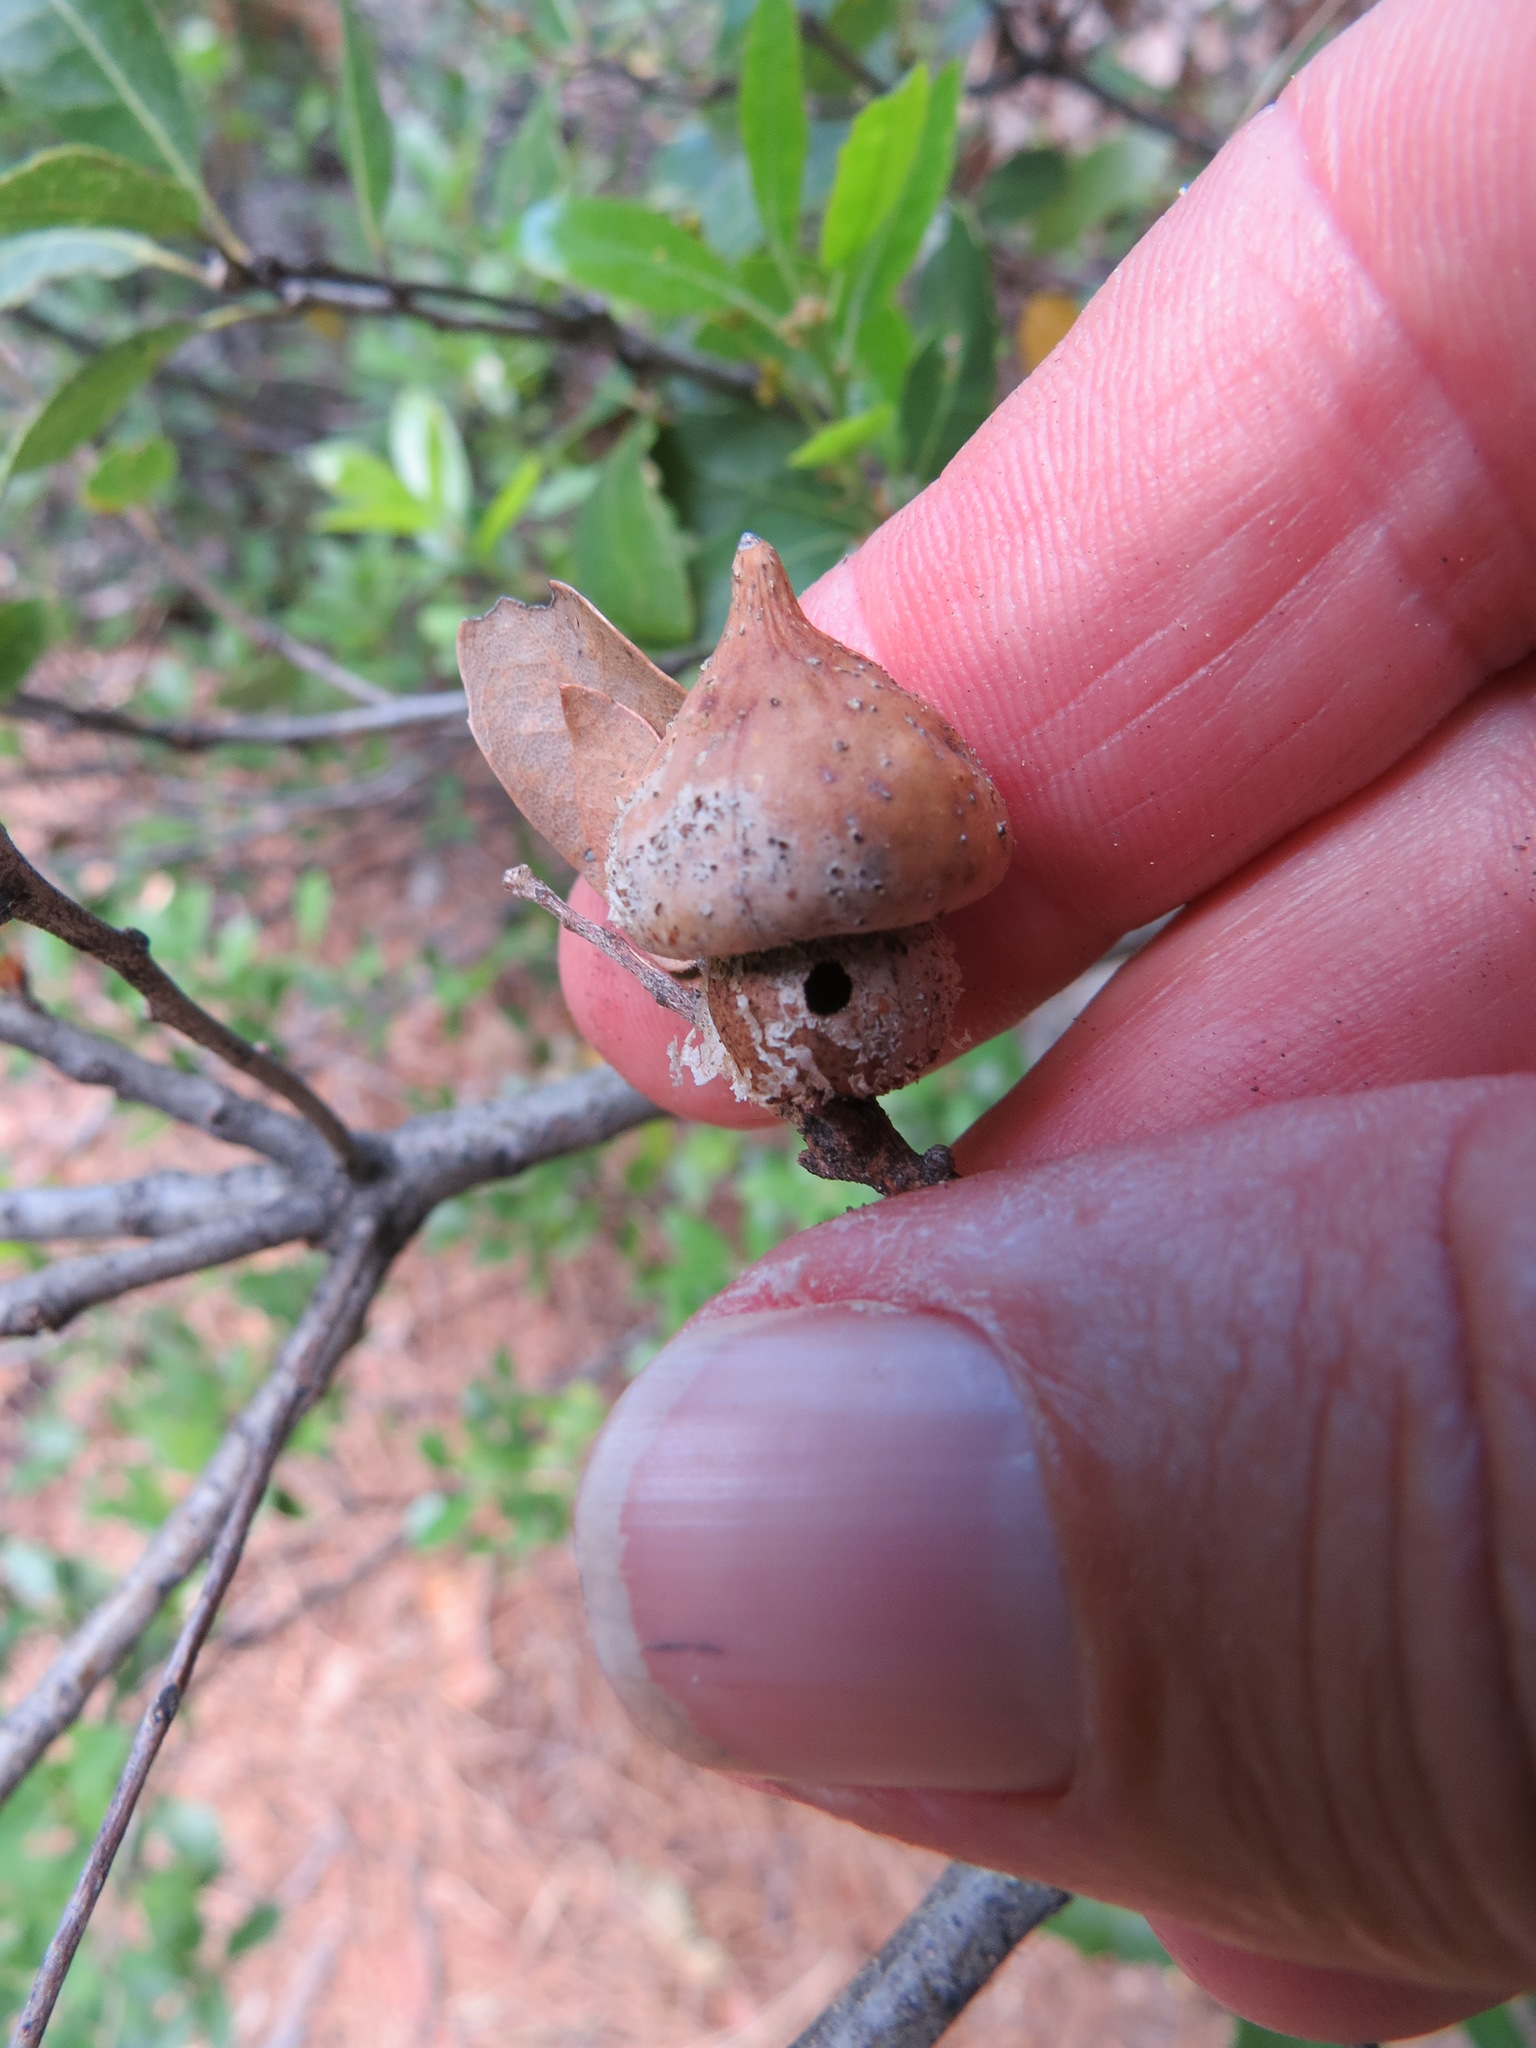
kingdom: Animalia
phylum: Arthropoda
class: Insecta
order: Hymenoptera
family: Cynipidae
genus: Heteroecus
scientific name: Heteroecus
